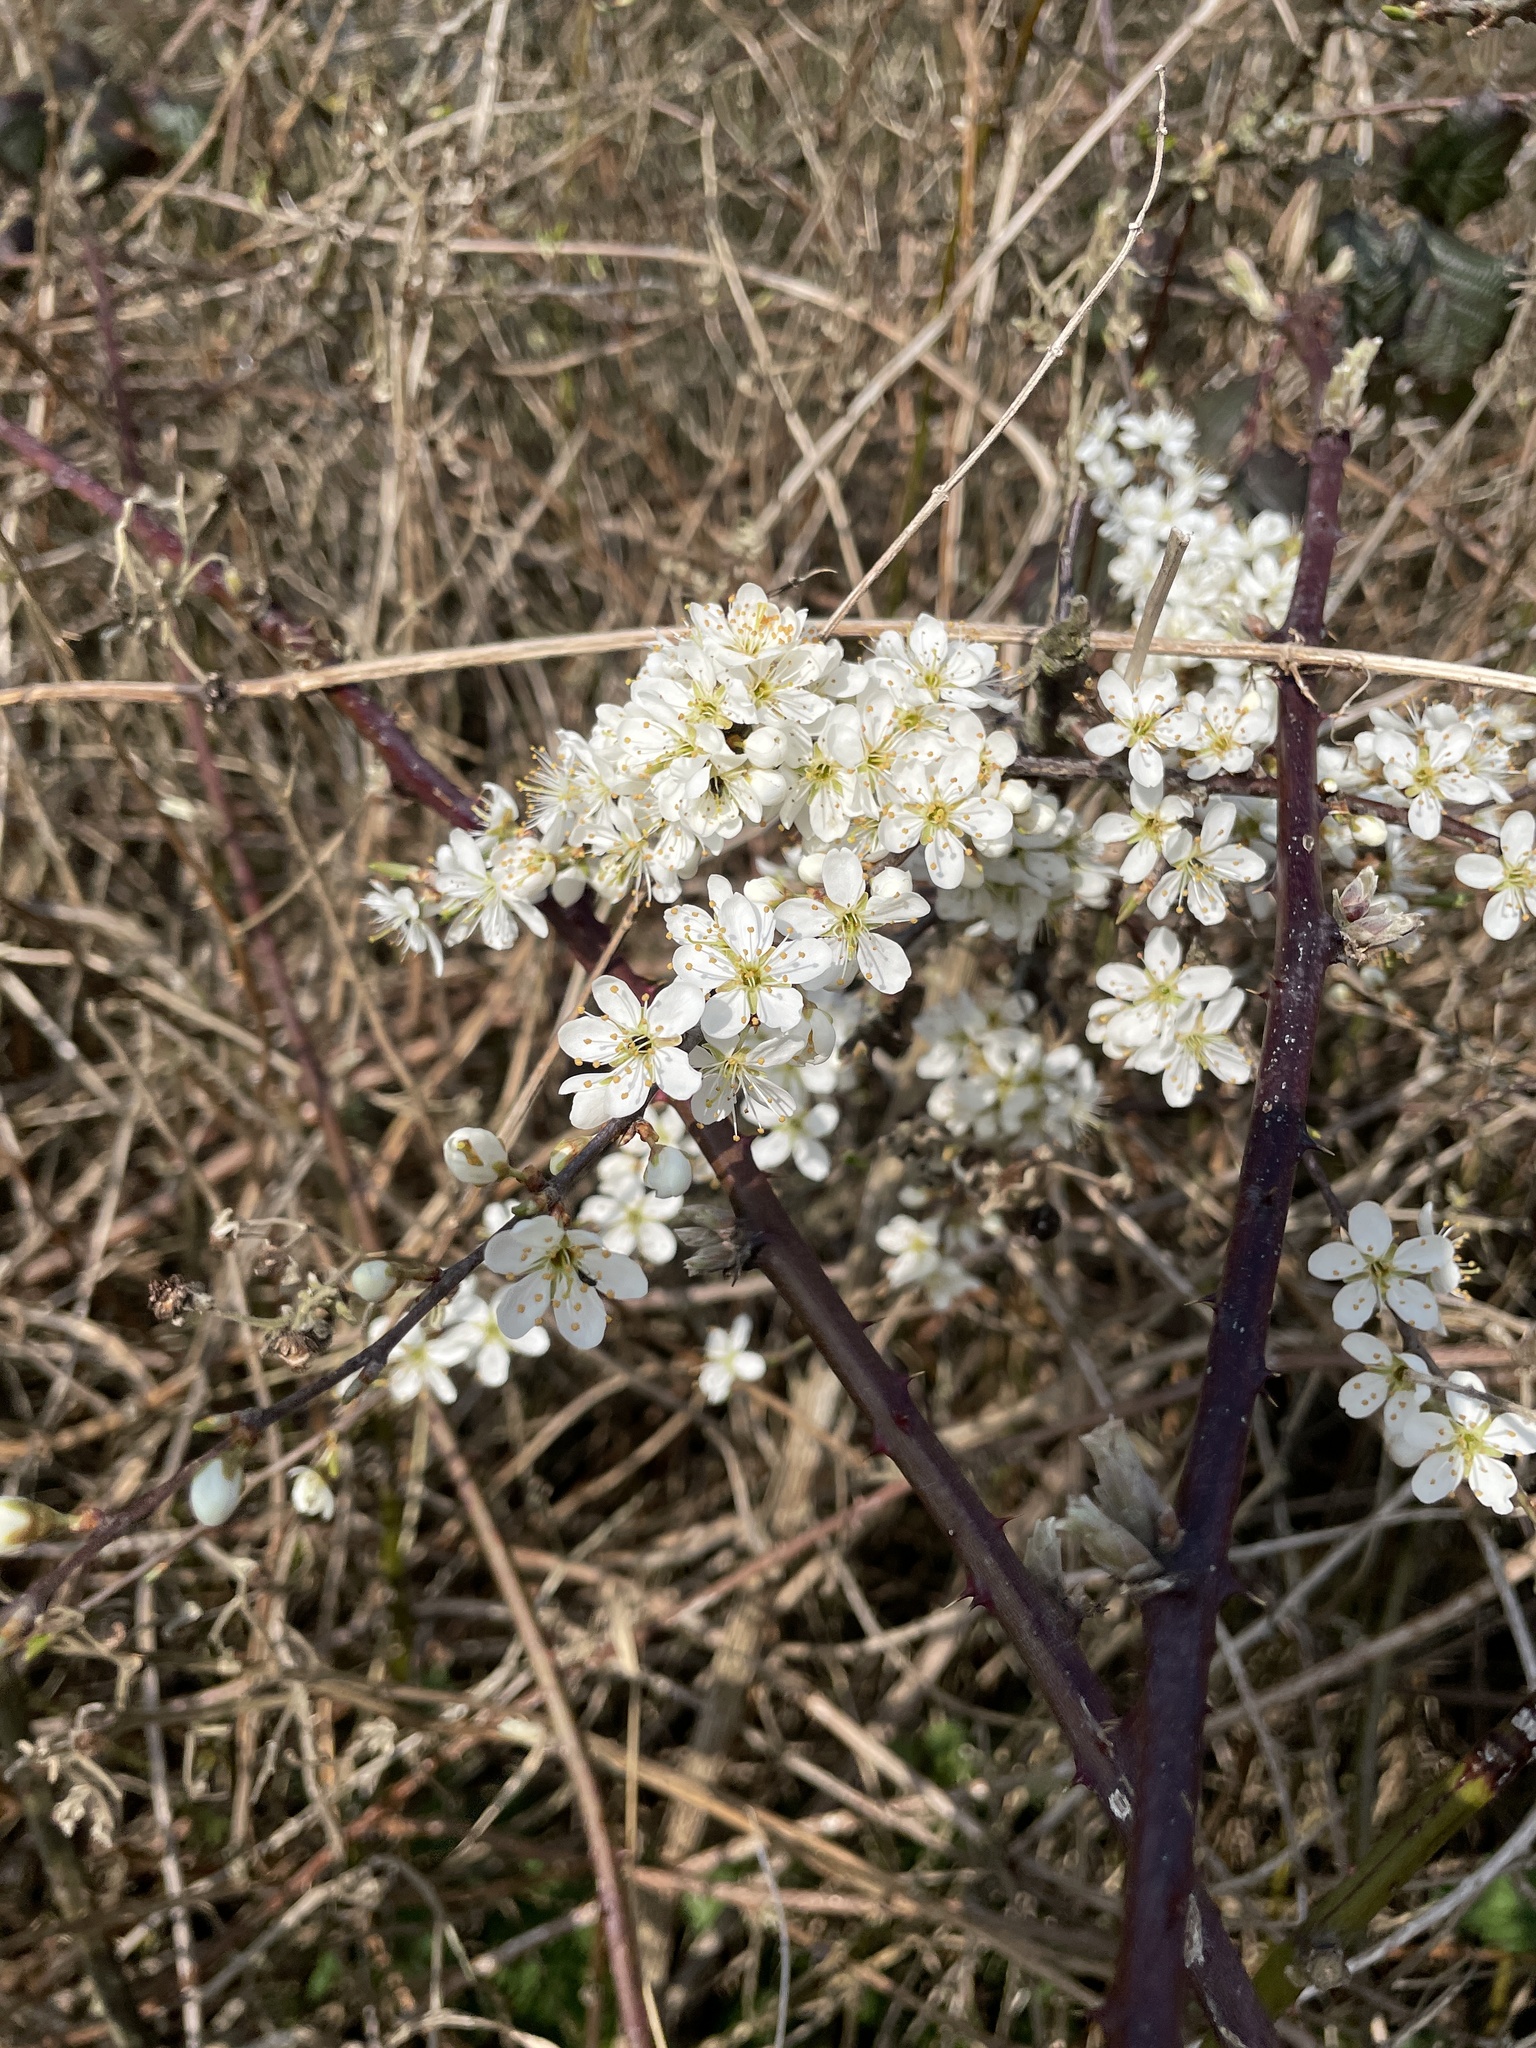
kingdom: Plantae
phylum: Tracheophyta
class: Magnoliopsida
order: Rosales
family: Rosaceae
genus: Prunus
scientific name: Prunus spinosa
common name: Blackthorn
